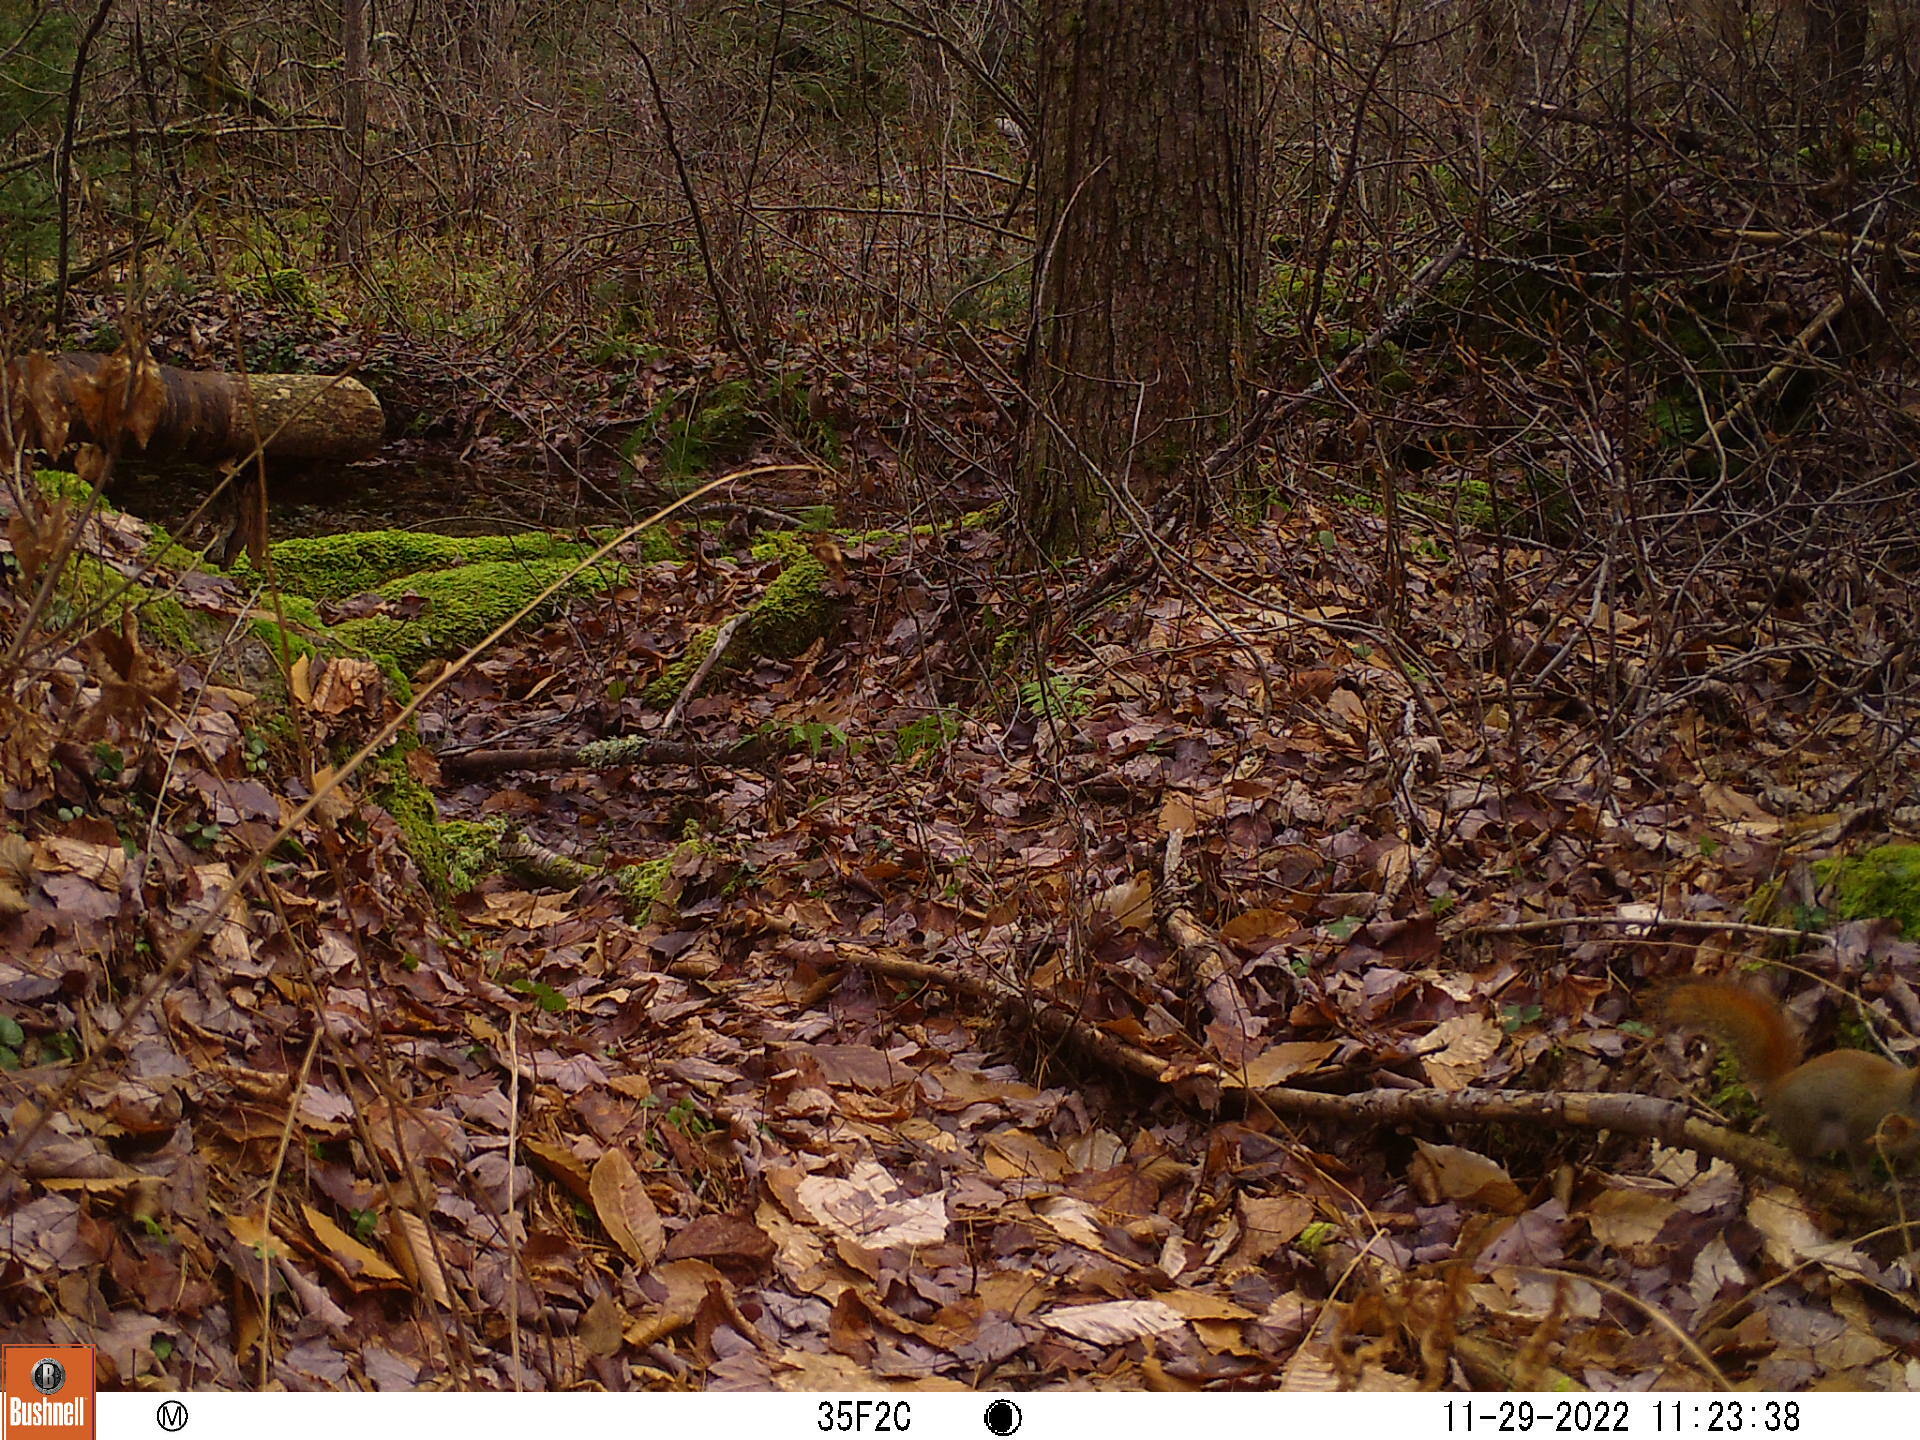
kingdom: Animalia
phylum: Chordata
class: Mammalia
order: Rodentia
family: Sciuridae
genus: Tamiasciurus
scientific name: Tamiasciurus hudsonicus
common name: Red squirrel
